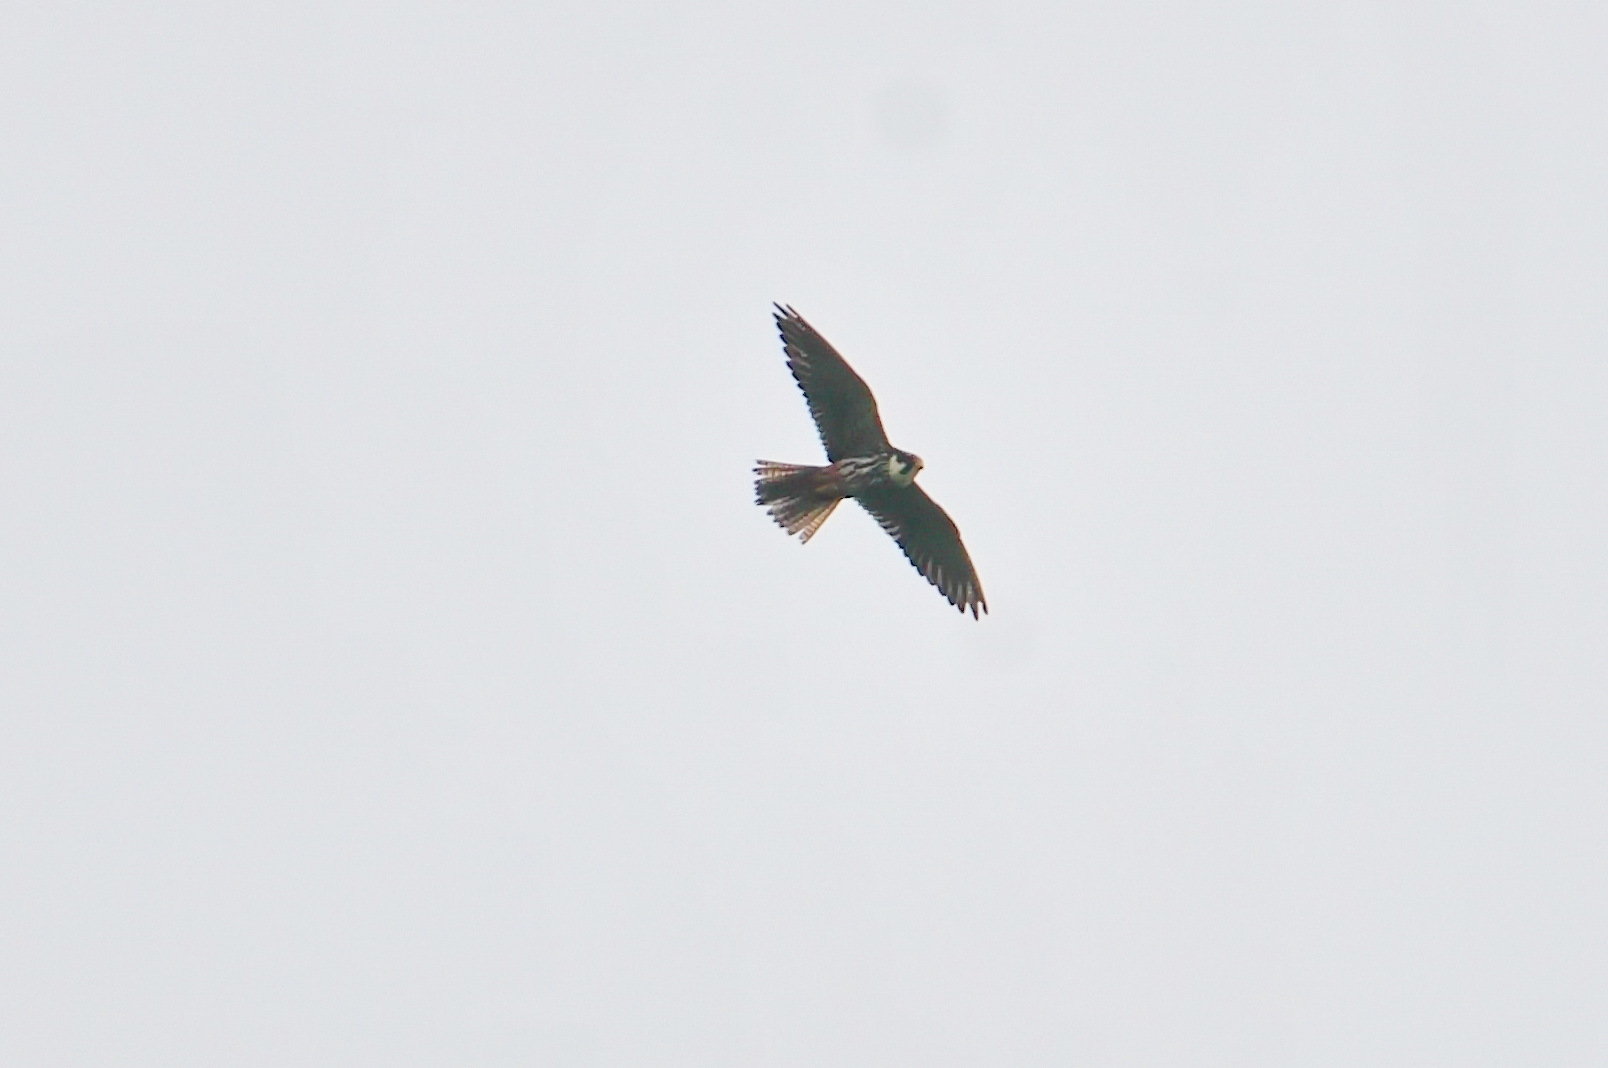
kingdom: Animalia
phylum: Chordata
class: Aves
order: Falconiformes
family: Falconidae
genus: Falco
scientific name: Falco subbuteo
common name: Eurasian hobby
